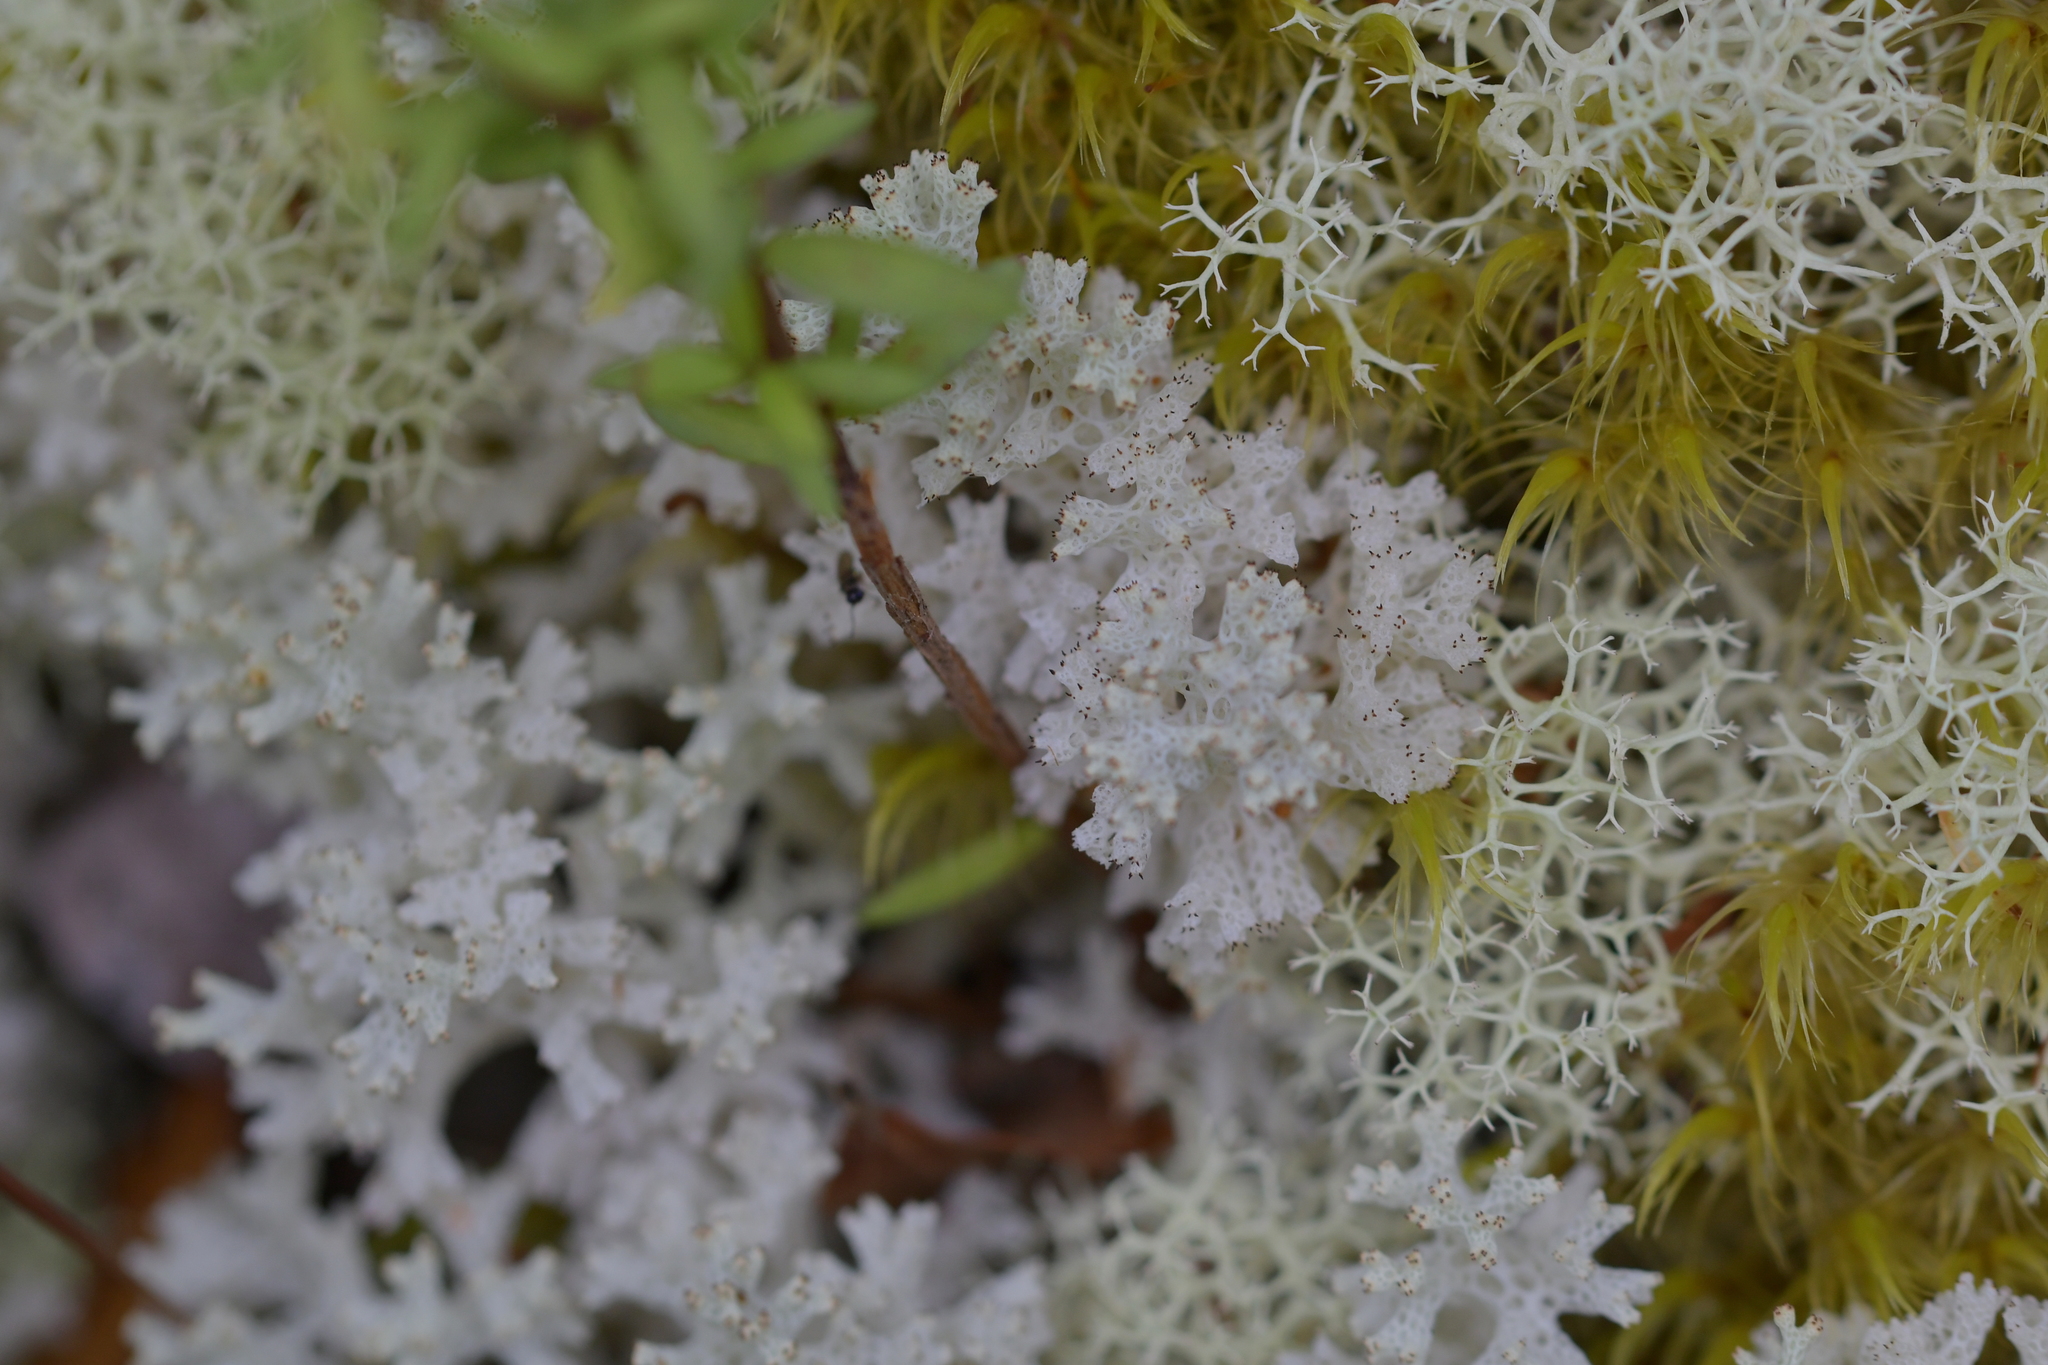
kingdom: Fungi
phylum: Ascomycota
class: Lecanoromycetes
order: Lecanorales
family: Cladoniaceae
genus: Pulchrocladia
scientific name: Pulchrocladia retipora
